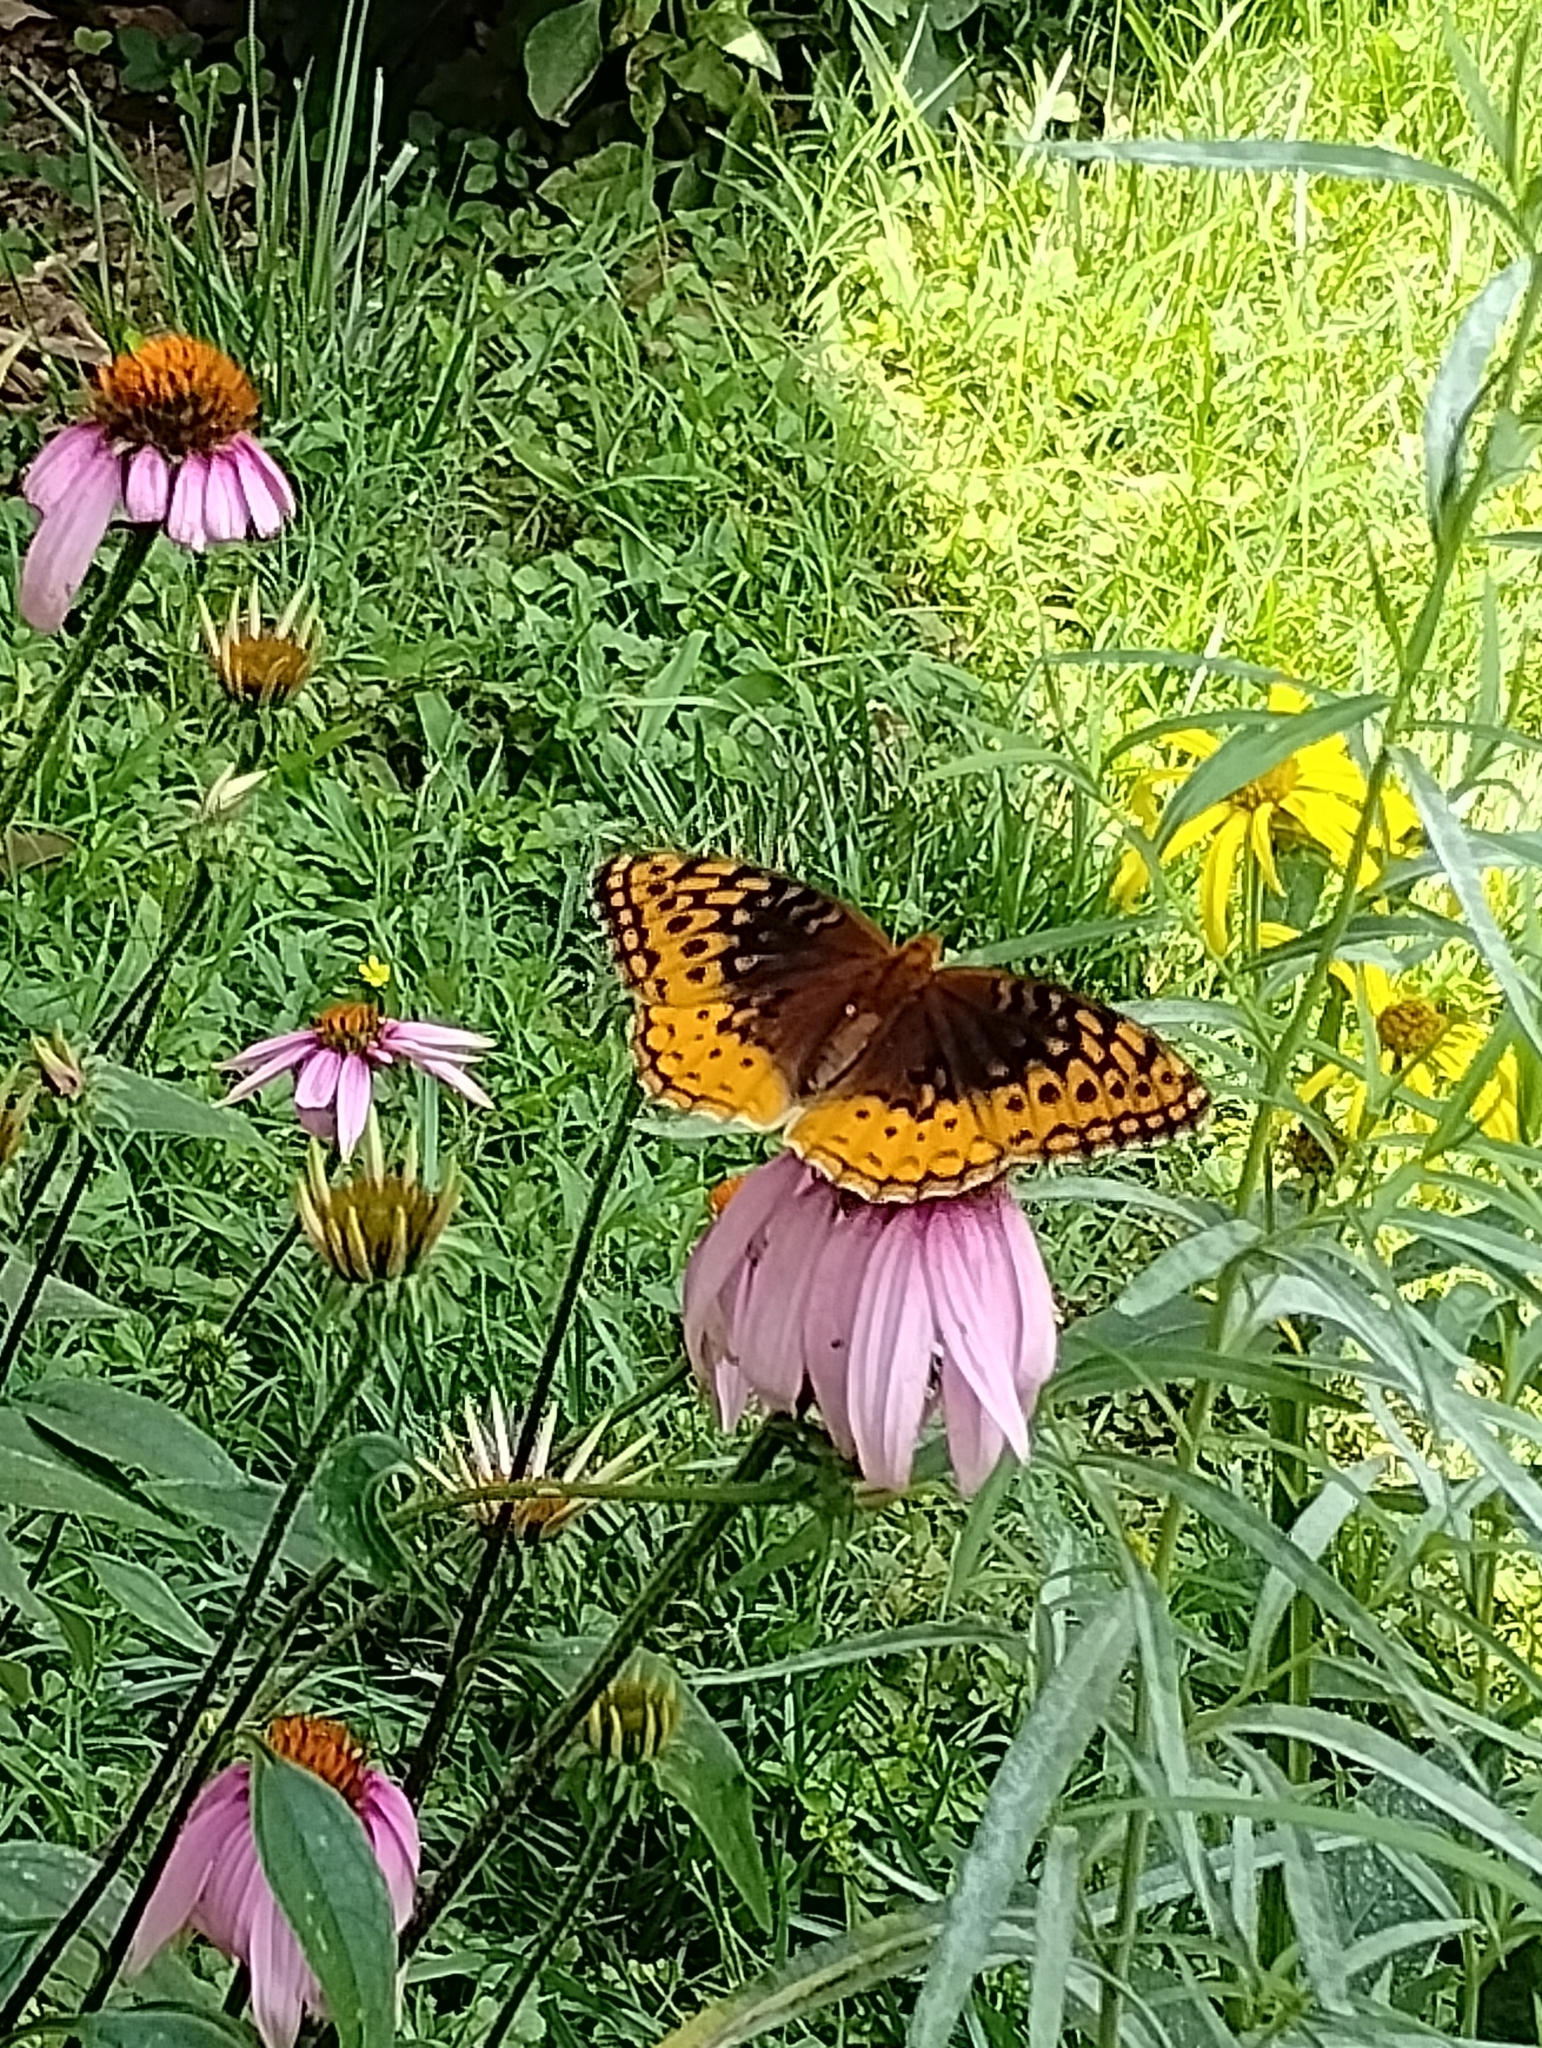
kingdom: Animalia
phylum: Arthropoda
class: Insecta
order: Lepidoptera
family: Nymphalidae
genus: Speyeria
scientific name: Speyeria cybele
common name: Great spangled fritillary
